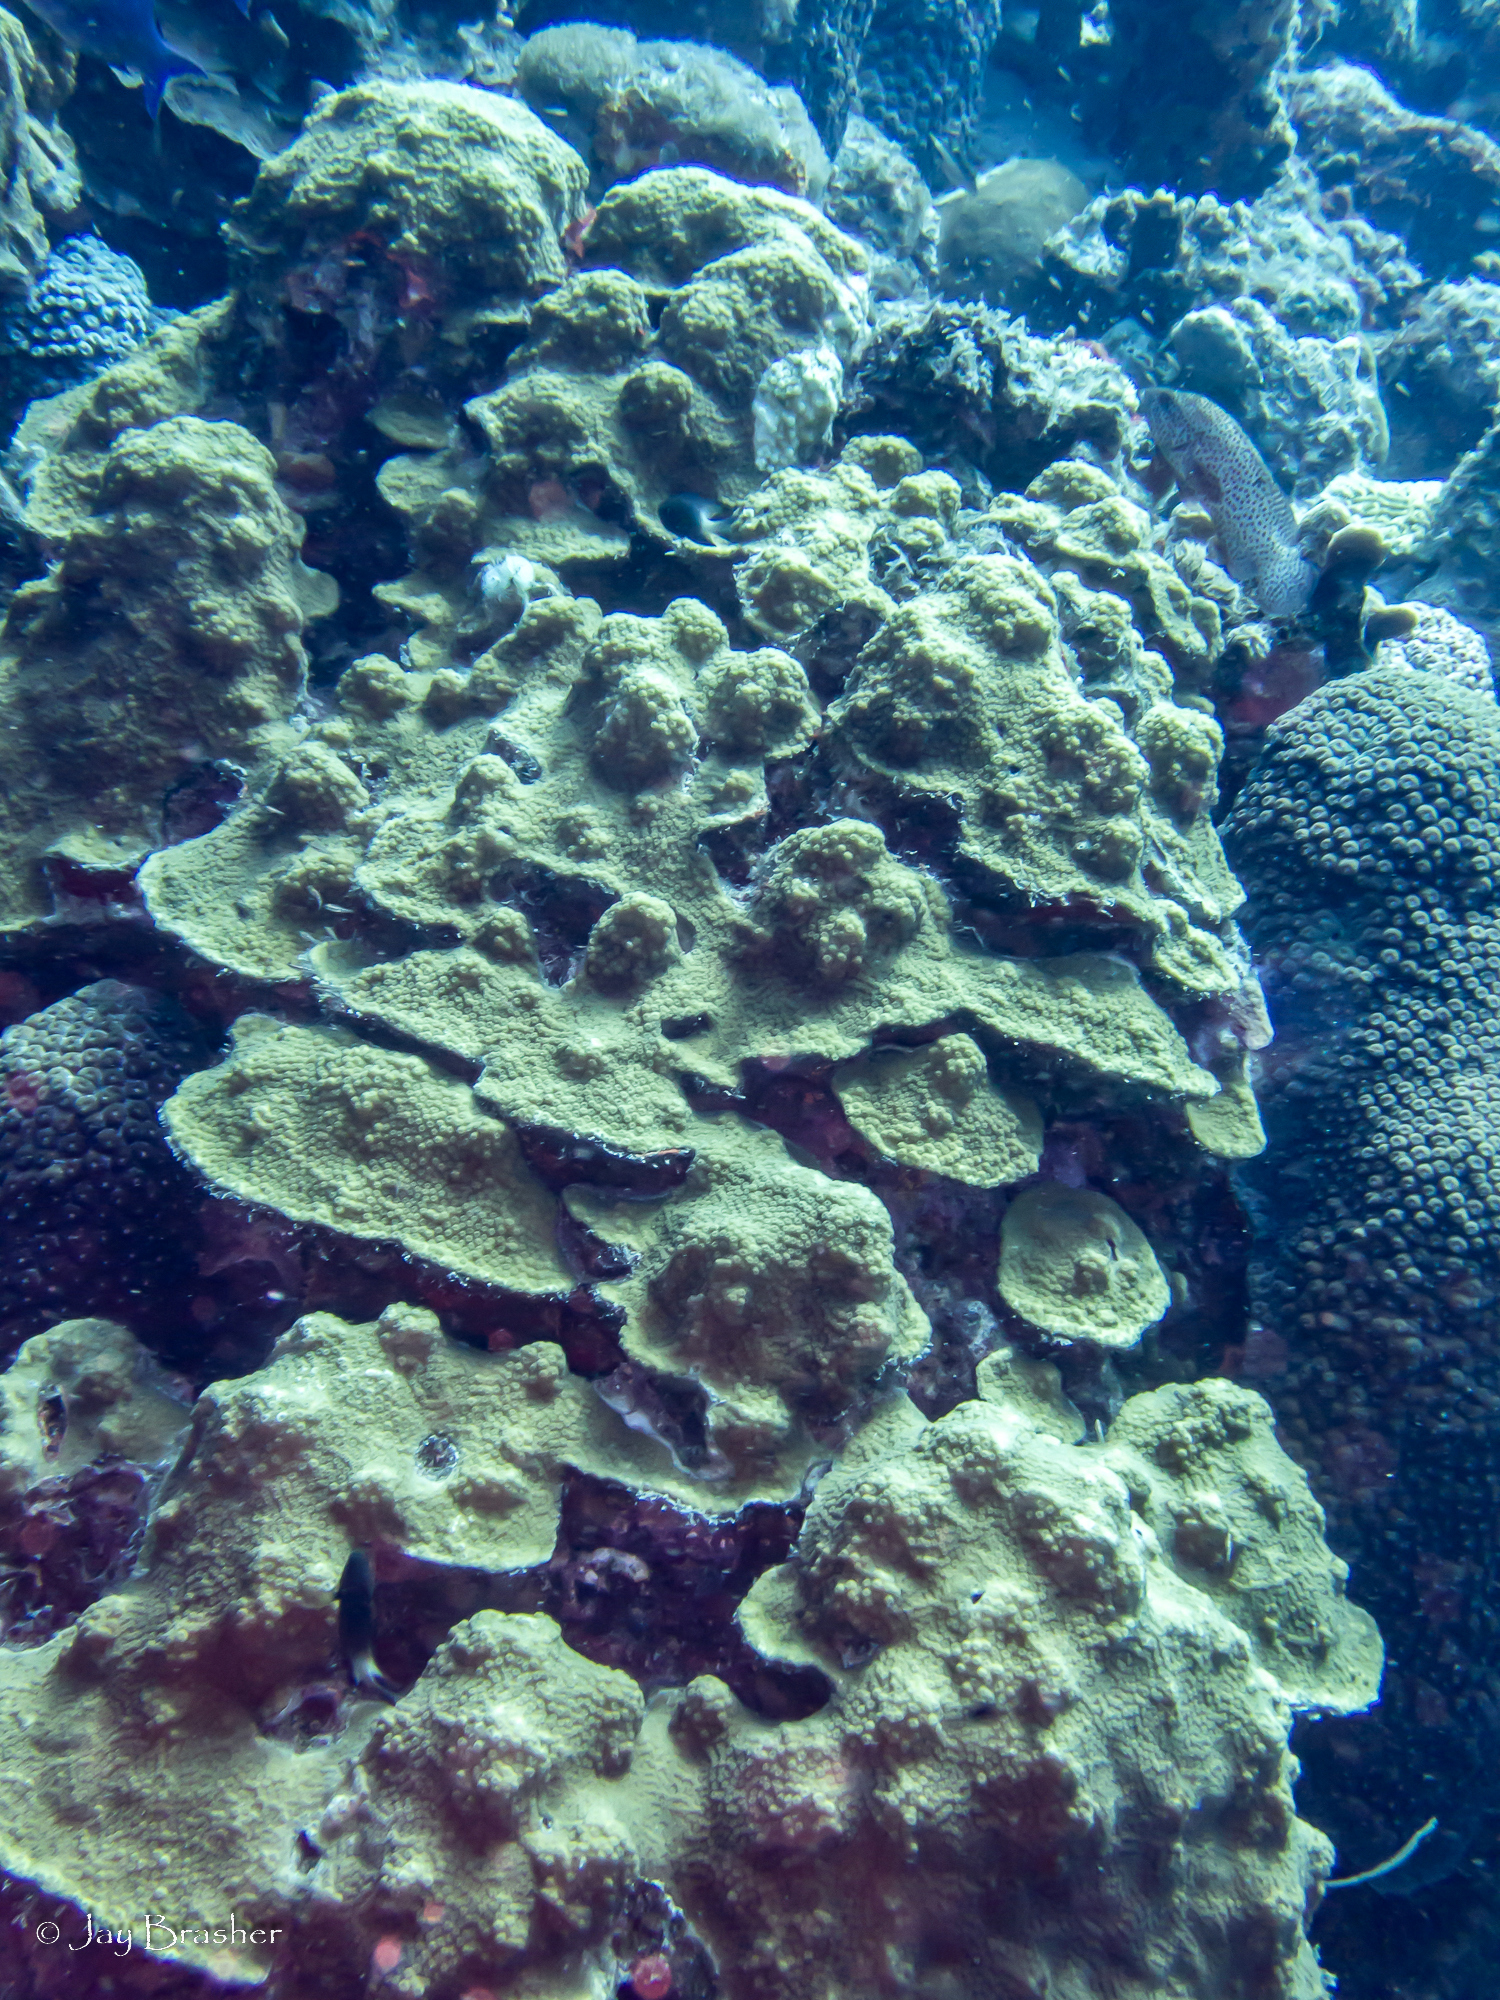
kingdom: Animalia
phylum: Chordata
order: Perciformes
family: Serranidae
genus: Cephalopholis
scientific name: Cephalopholis cruentata
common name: Graysby
